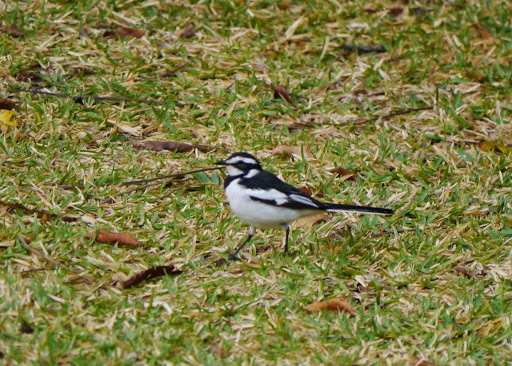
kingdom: Animalia
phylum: Chordata
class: Aves
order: Passeriformes
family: Motacillidae
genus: Motacilla
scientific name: Motacilla aguimp
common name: African pied wagtail
